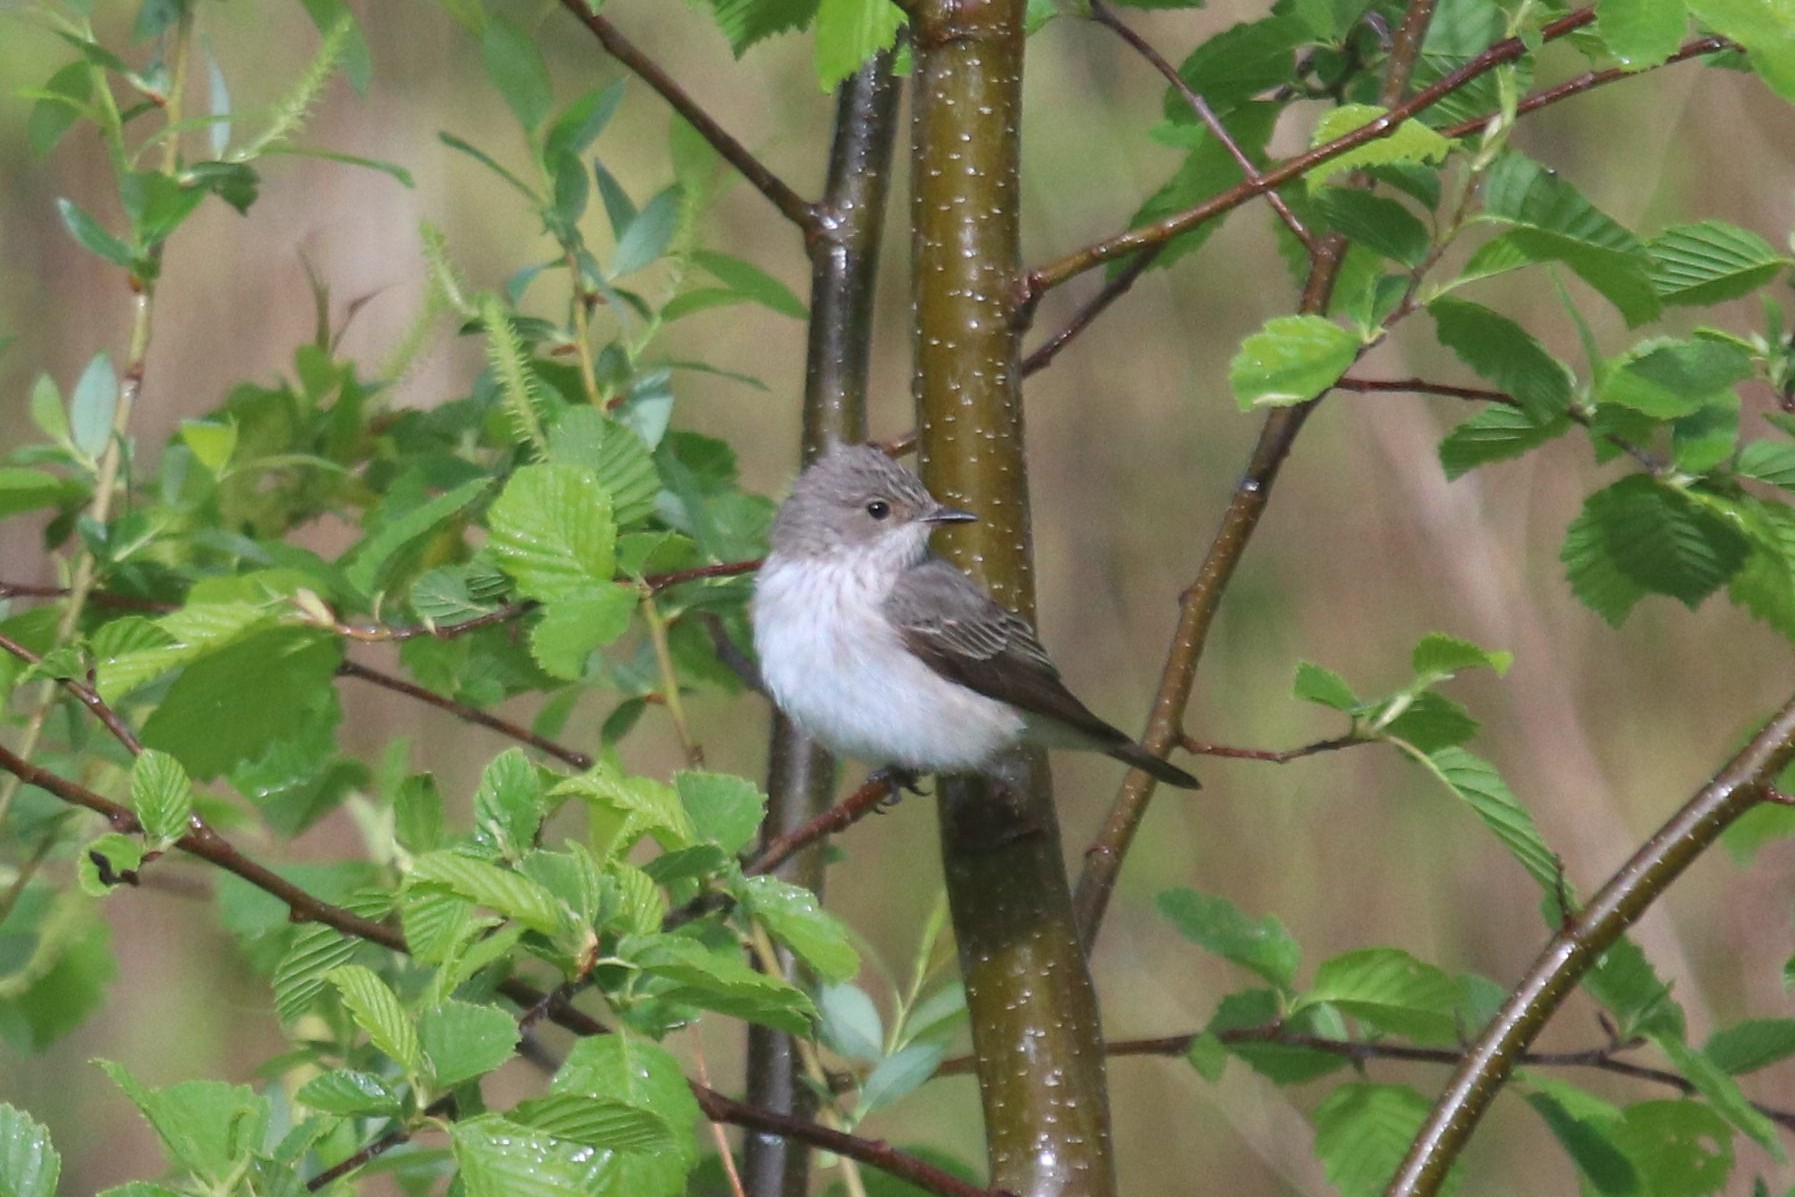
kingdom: Animalia
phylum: Chordata
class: Aves
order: Passeriformes
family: Muscicapidae
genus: Muscicapa
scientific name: Muscicapa striata
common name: Spotted flycatcher
